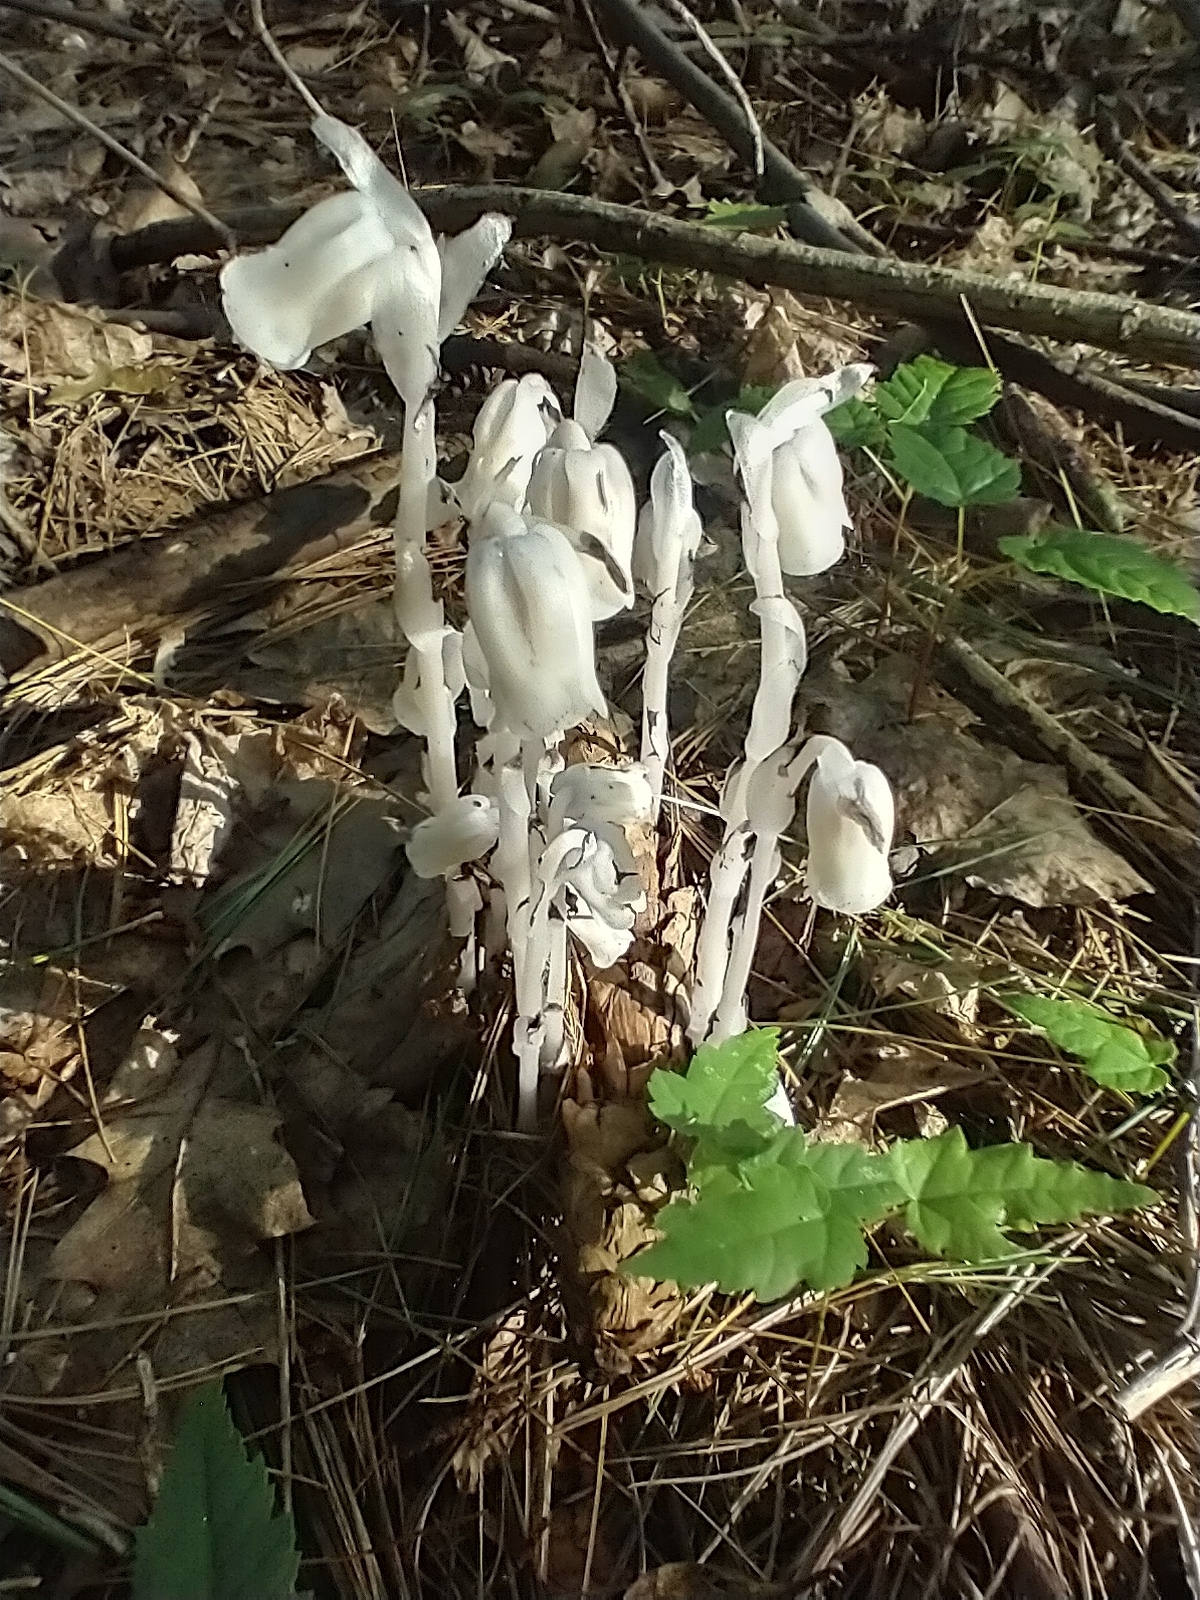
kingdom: Plantae
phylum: Tracheophyta
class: Magnoliopsida
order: Ericales
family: Ericaceae
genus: Monotropa
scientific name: Monotropa uniflora
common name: Convulsion root
